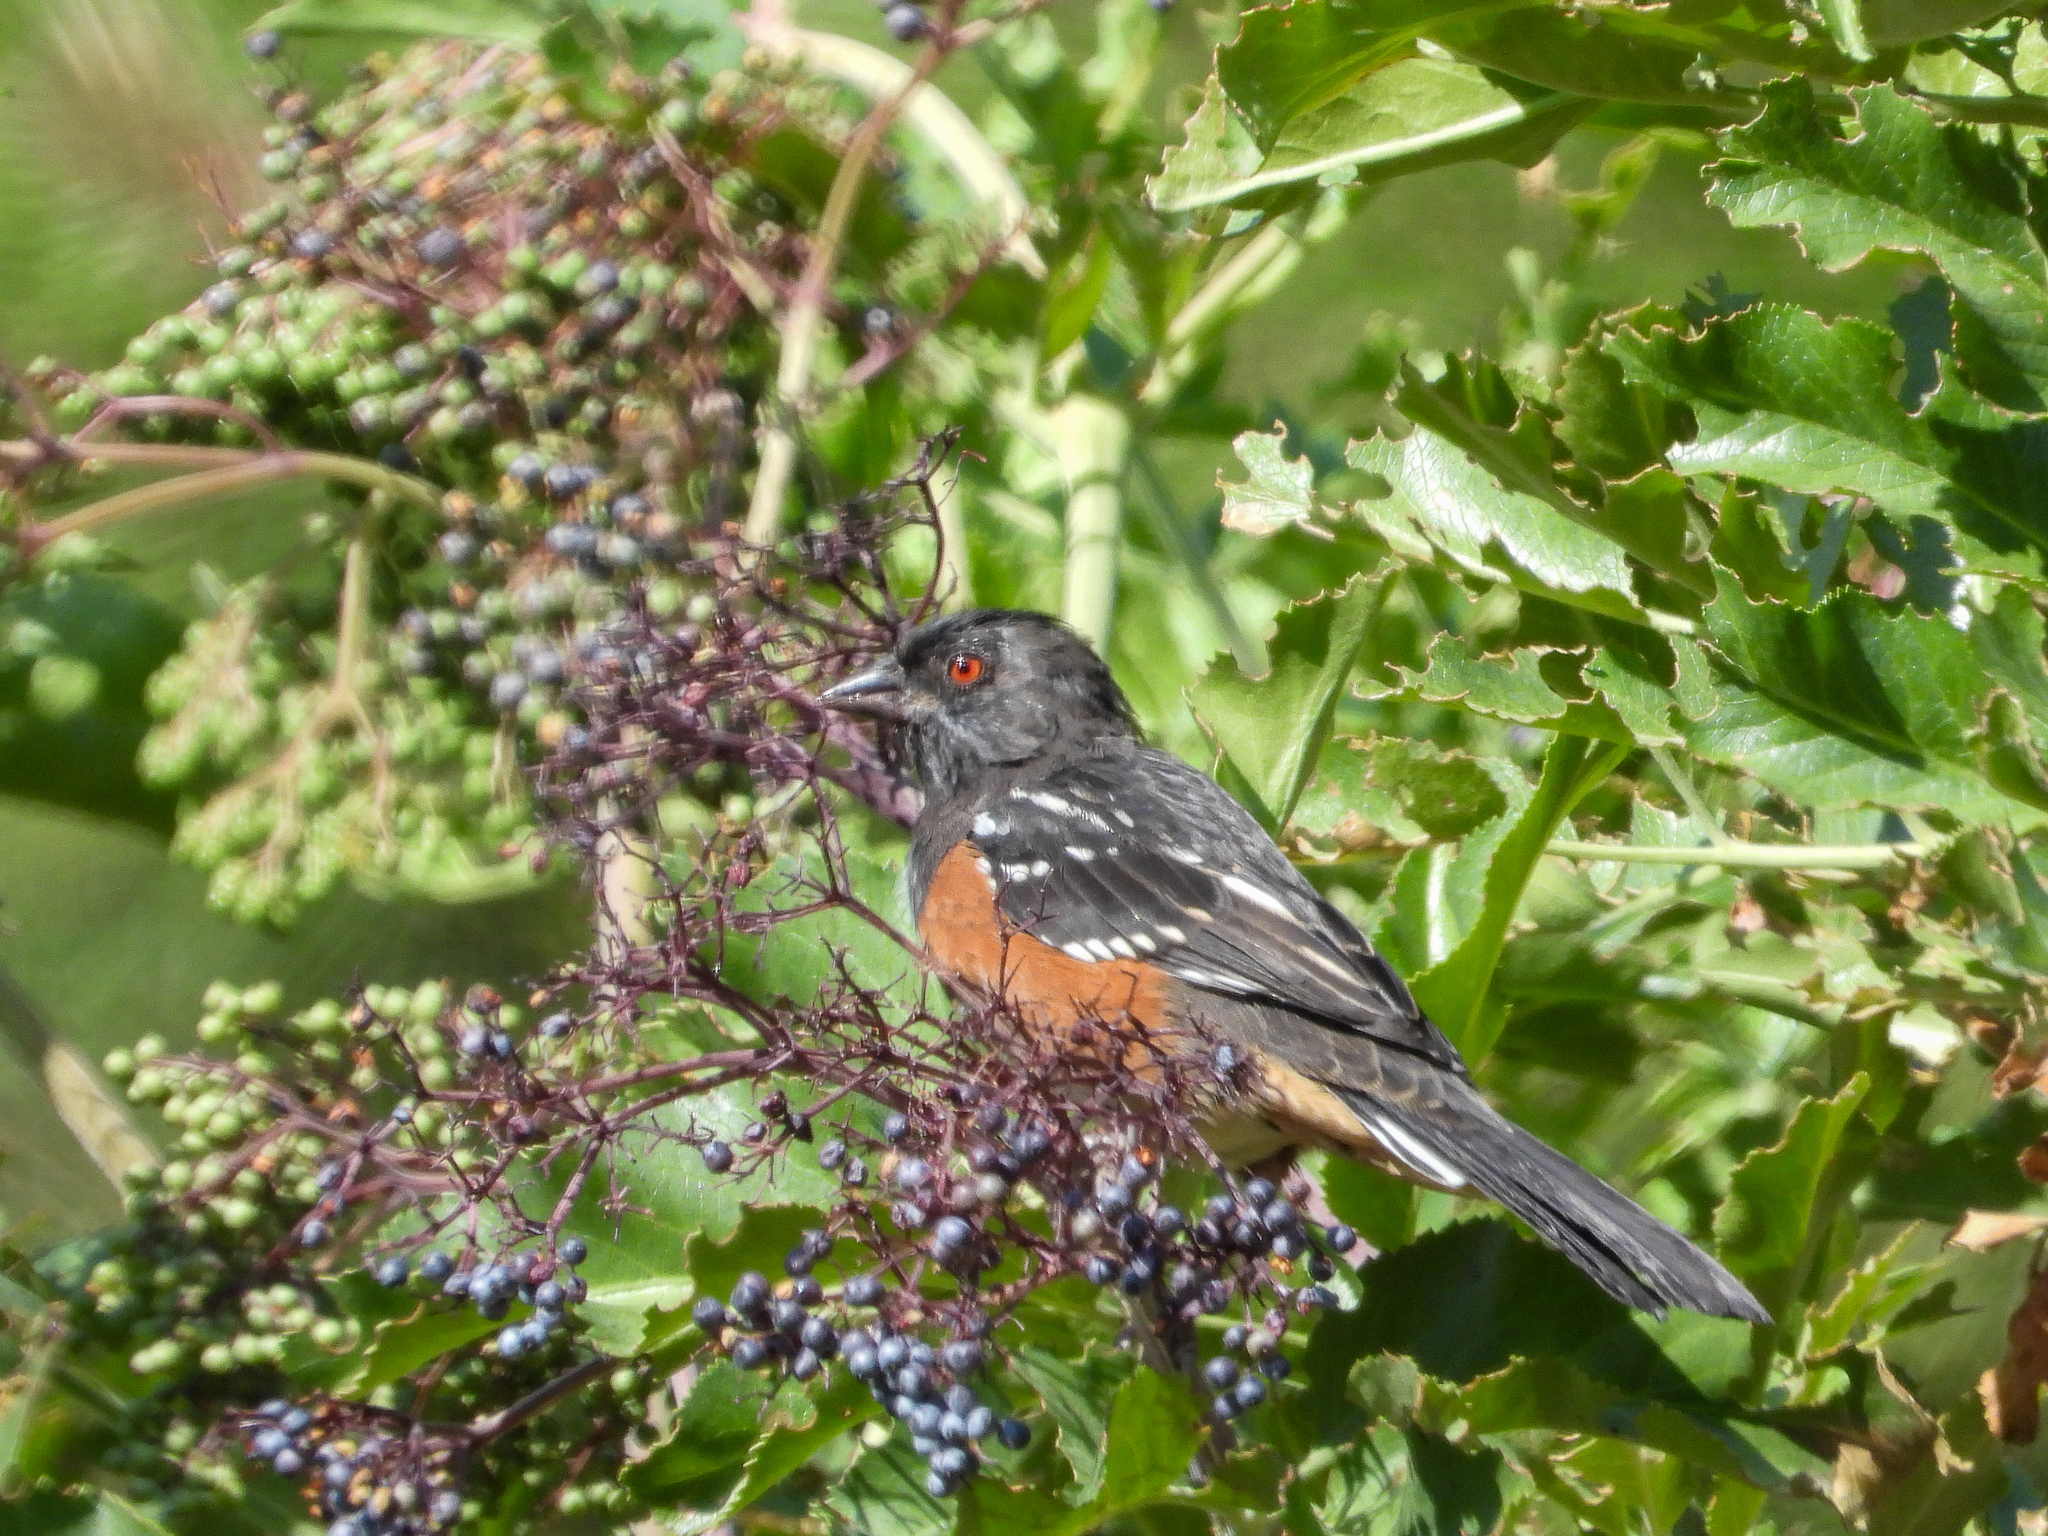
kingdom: Animalia
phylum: Chordata
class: Aves
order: Passeriformes
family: Passerellidae
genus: Pipilo
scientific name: Pipilo maculatus
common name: Spotted towhee
